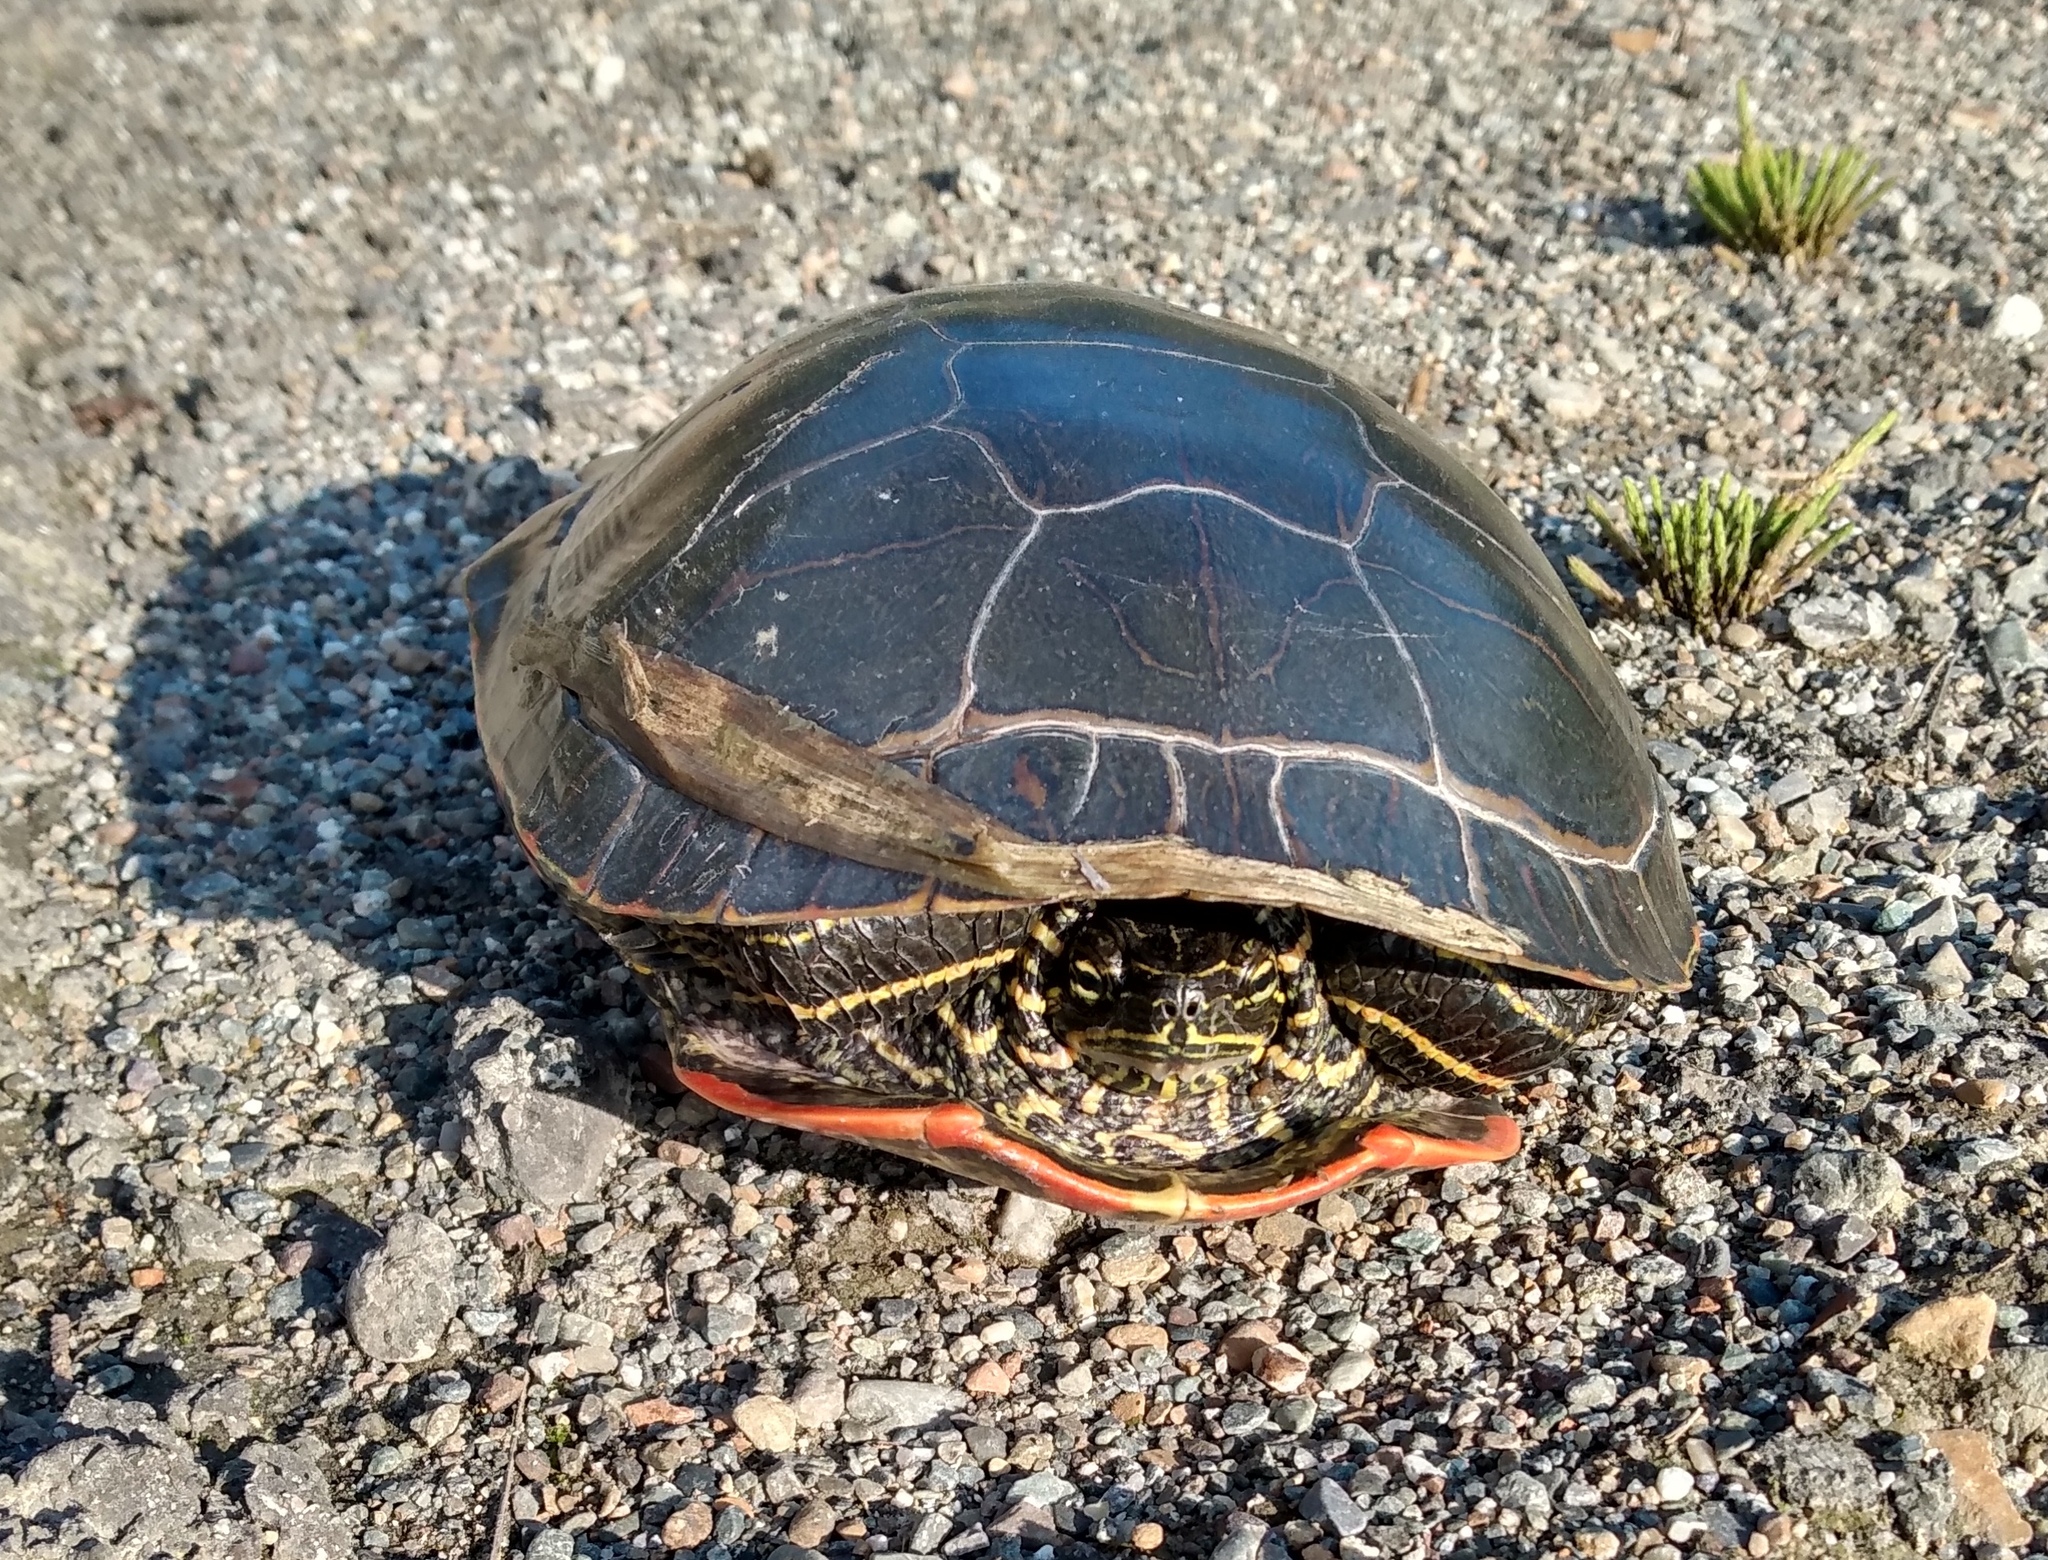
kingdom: Animalia
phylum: Chordata
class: Testudines
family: Emydidae
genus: Chrysemys
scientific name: Chrysemys picta
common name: Painted turtle
